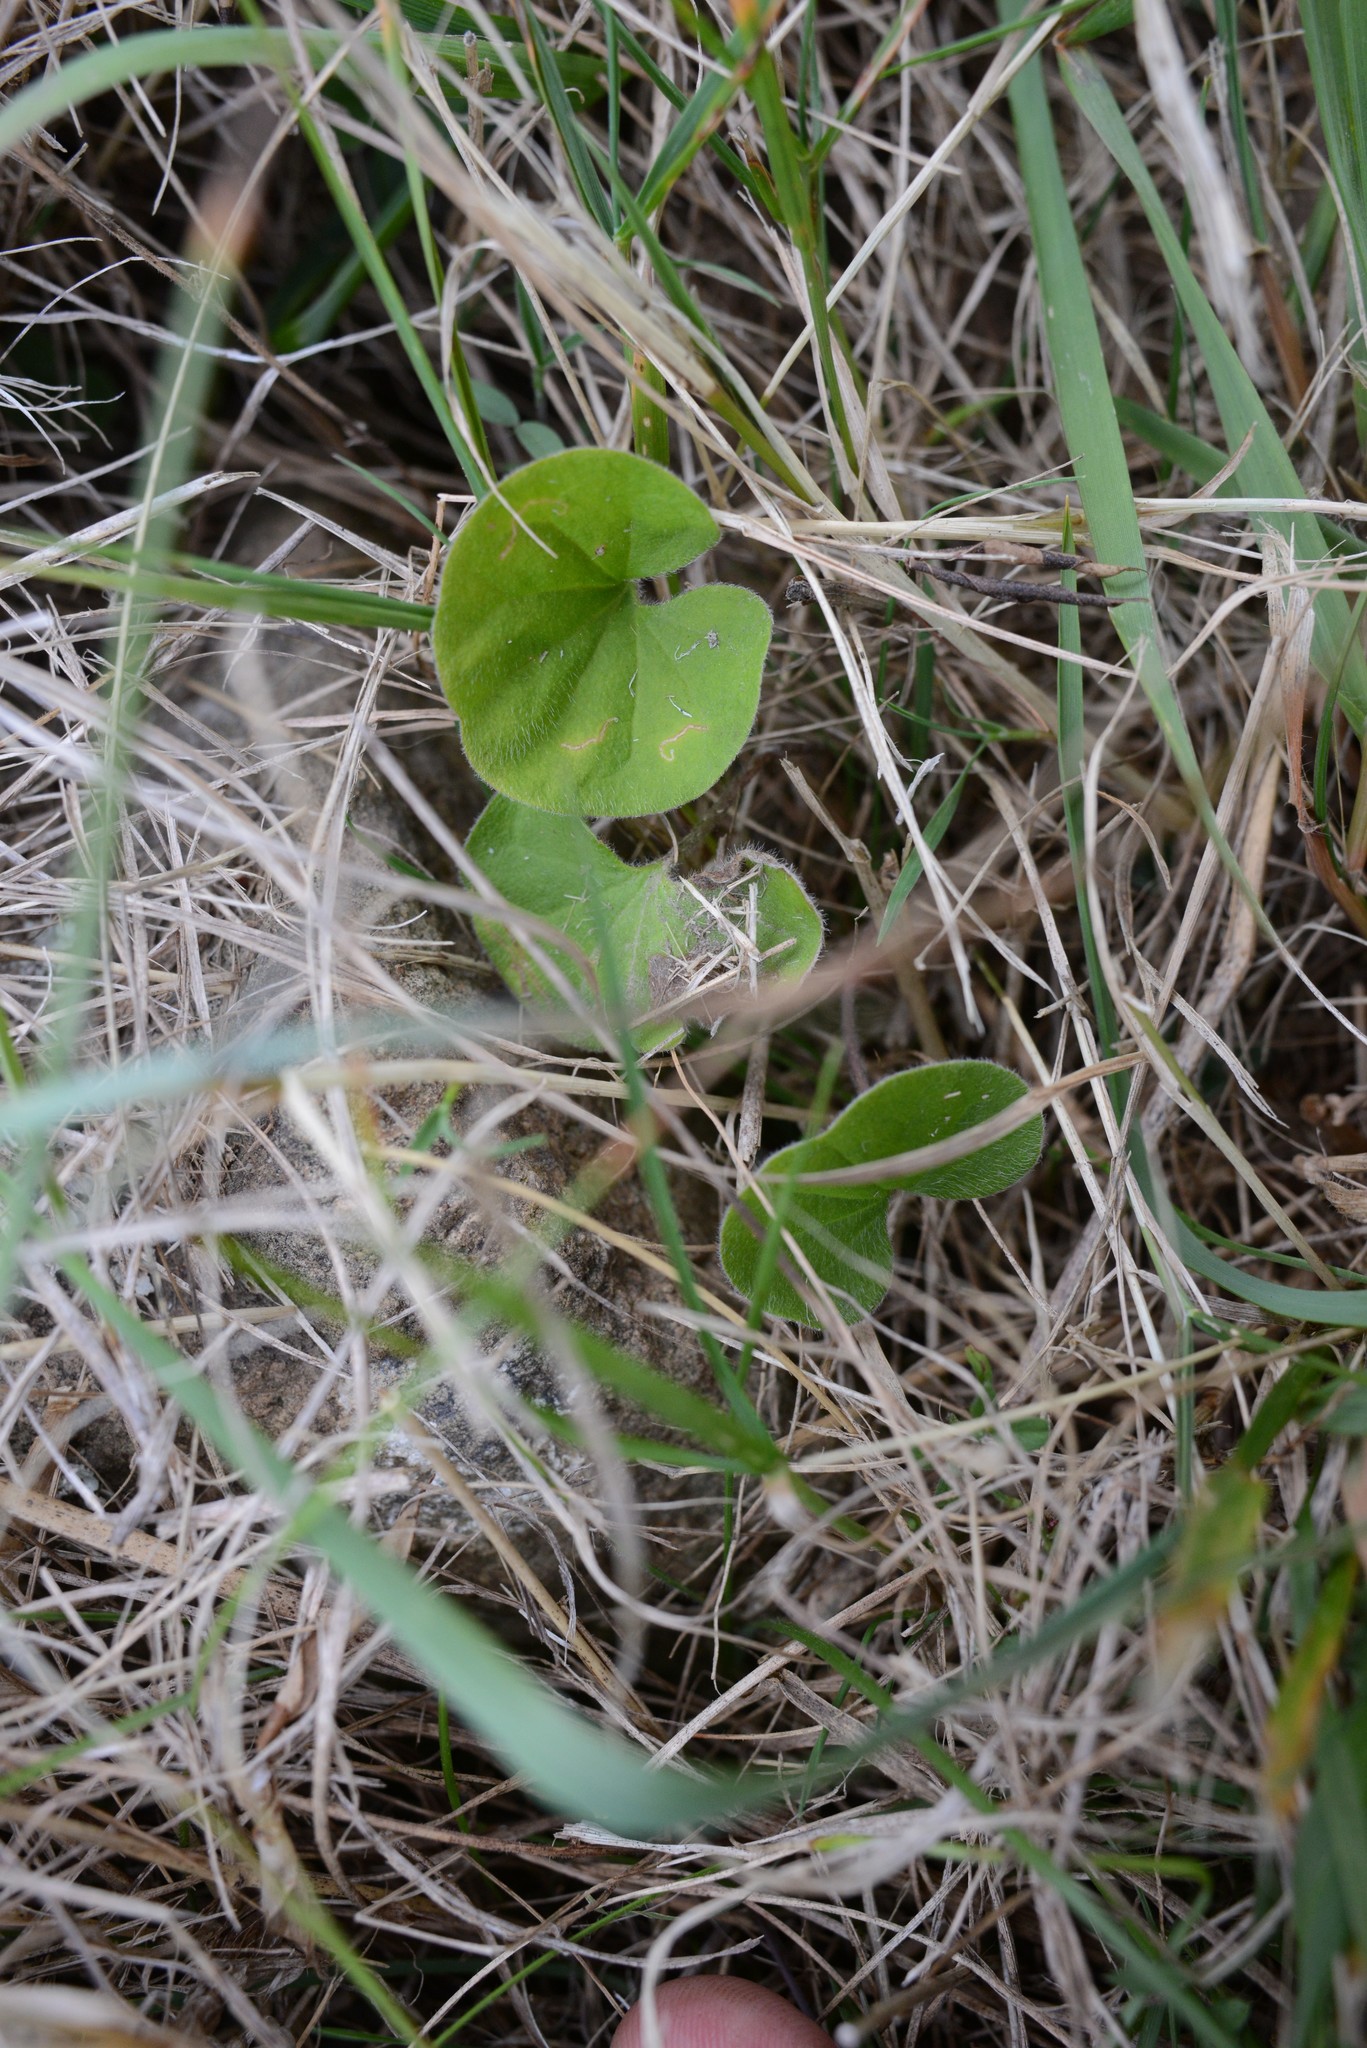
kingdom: Plantae
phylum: Tracheophyta
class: Magnoliopsida
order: Solanales
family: Convolvulaceae
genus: Dichondra
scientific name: Dichondra repens
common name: Kidneyweed
